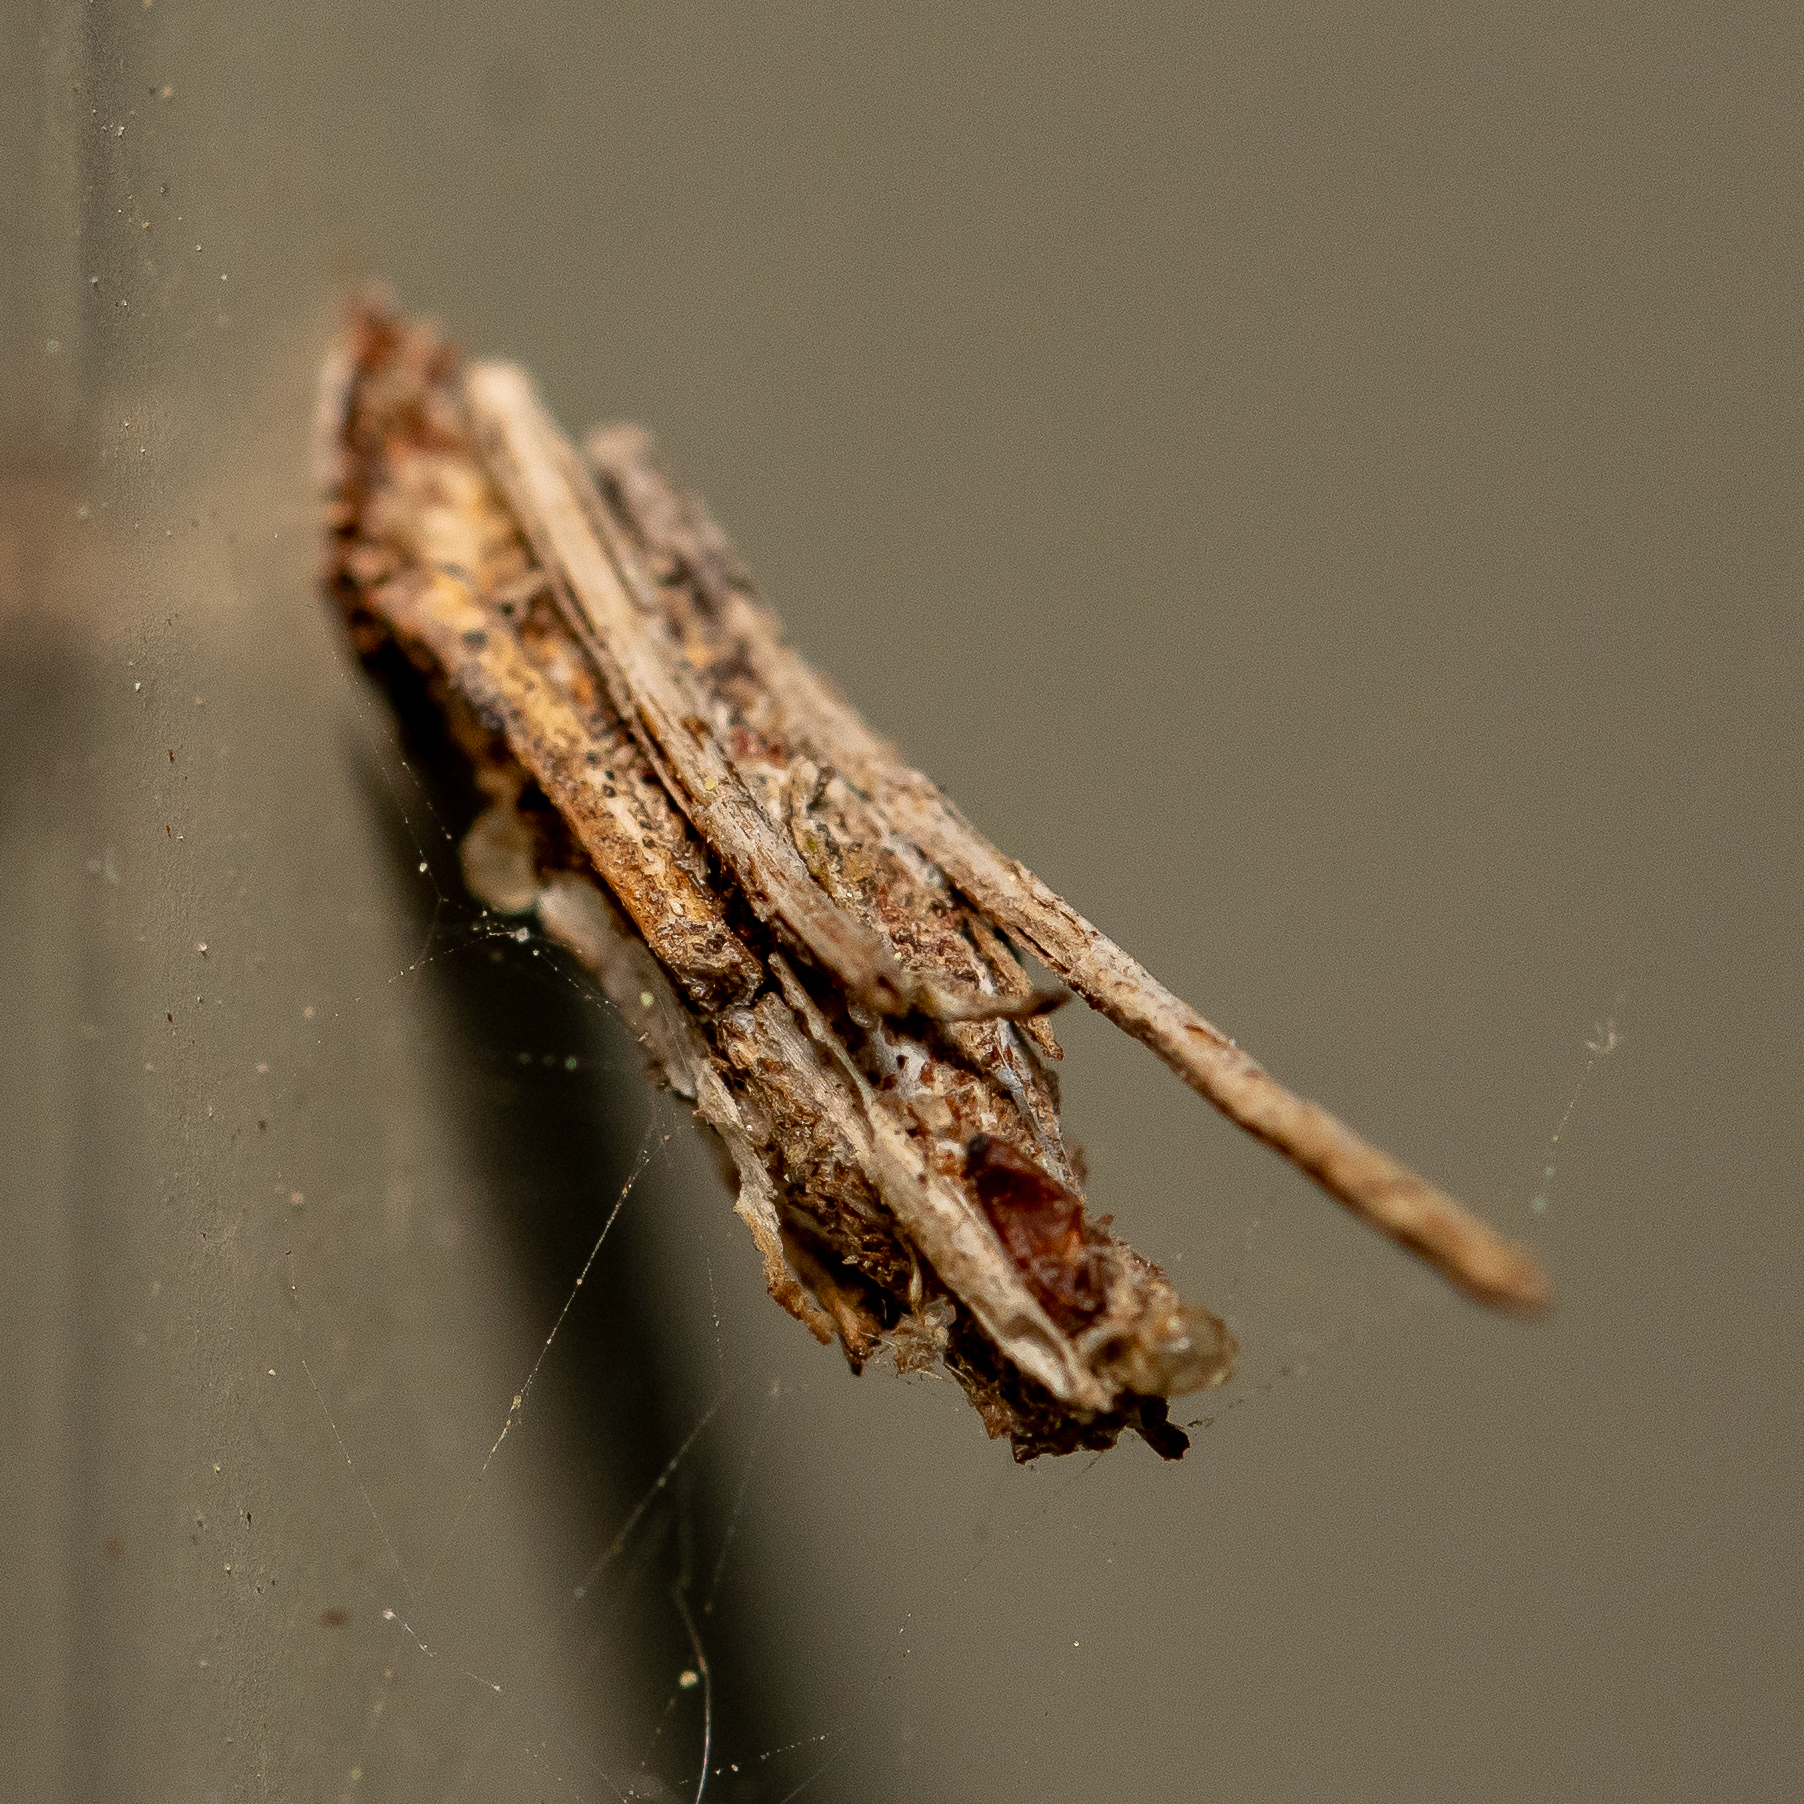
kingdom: Animalia
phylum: Arthropoda
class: Insecta
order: Lepidoptera
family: Psychidae
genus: Psyche
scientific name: Psyche casta
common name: Common sweep
